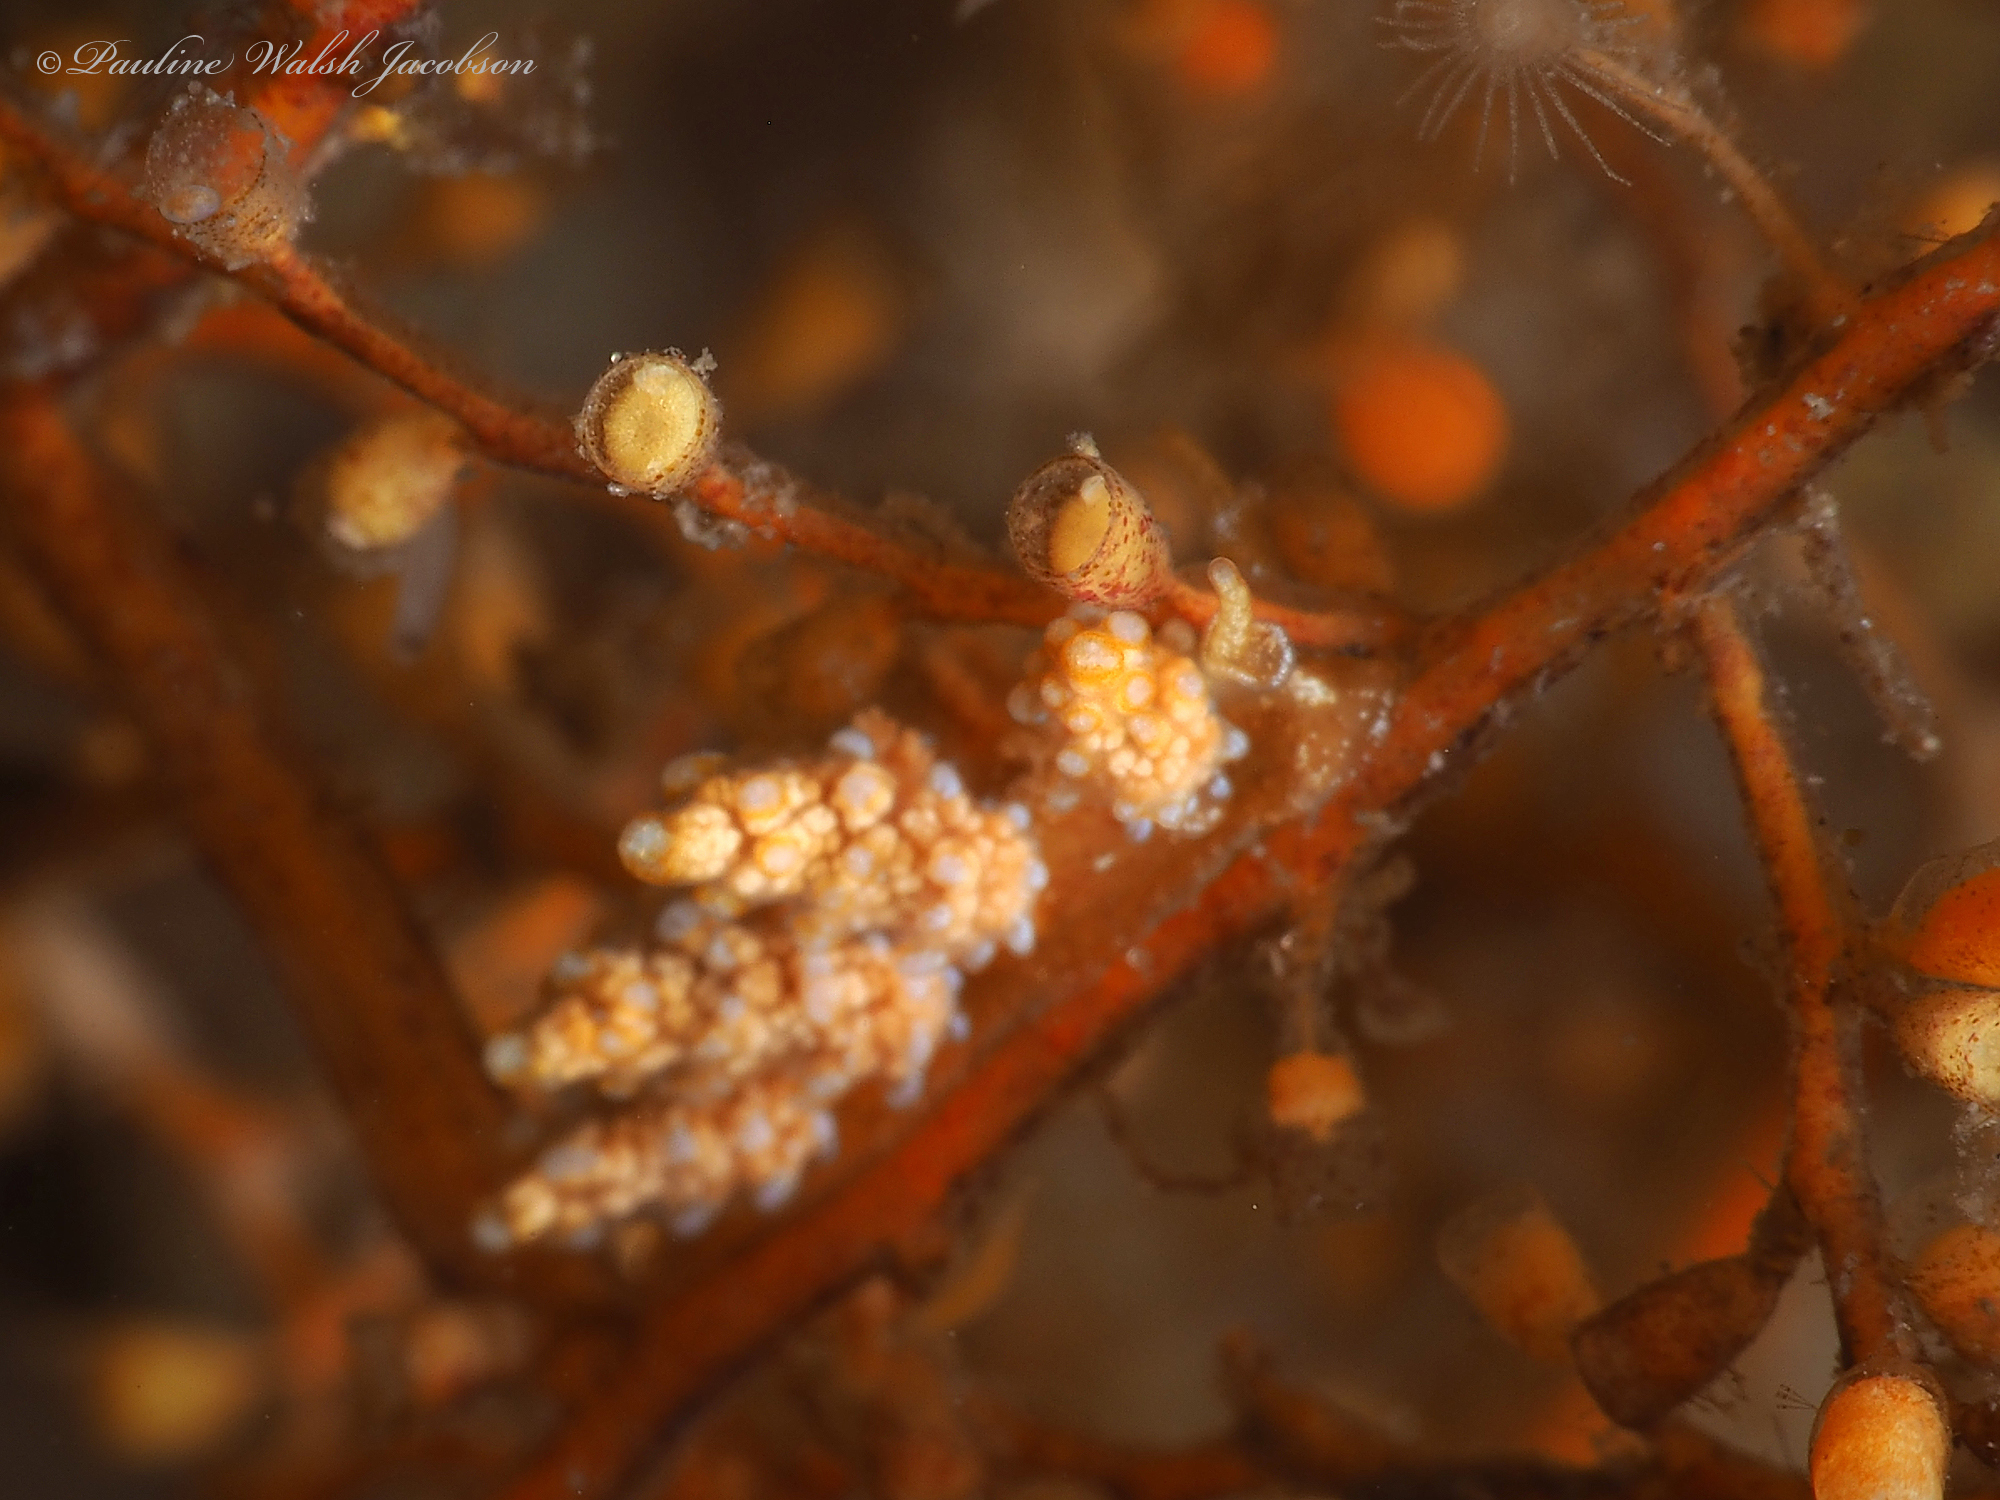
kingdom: Animalia
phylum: Mollusca
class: Gastropoda
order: Nudibranchia
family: Dotidae
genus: Doto
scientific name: Doto torrelavega
